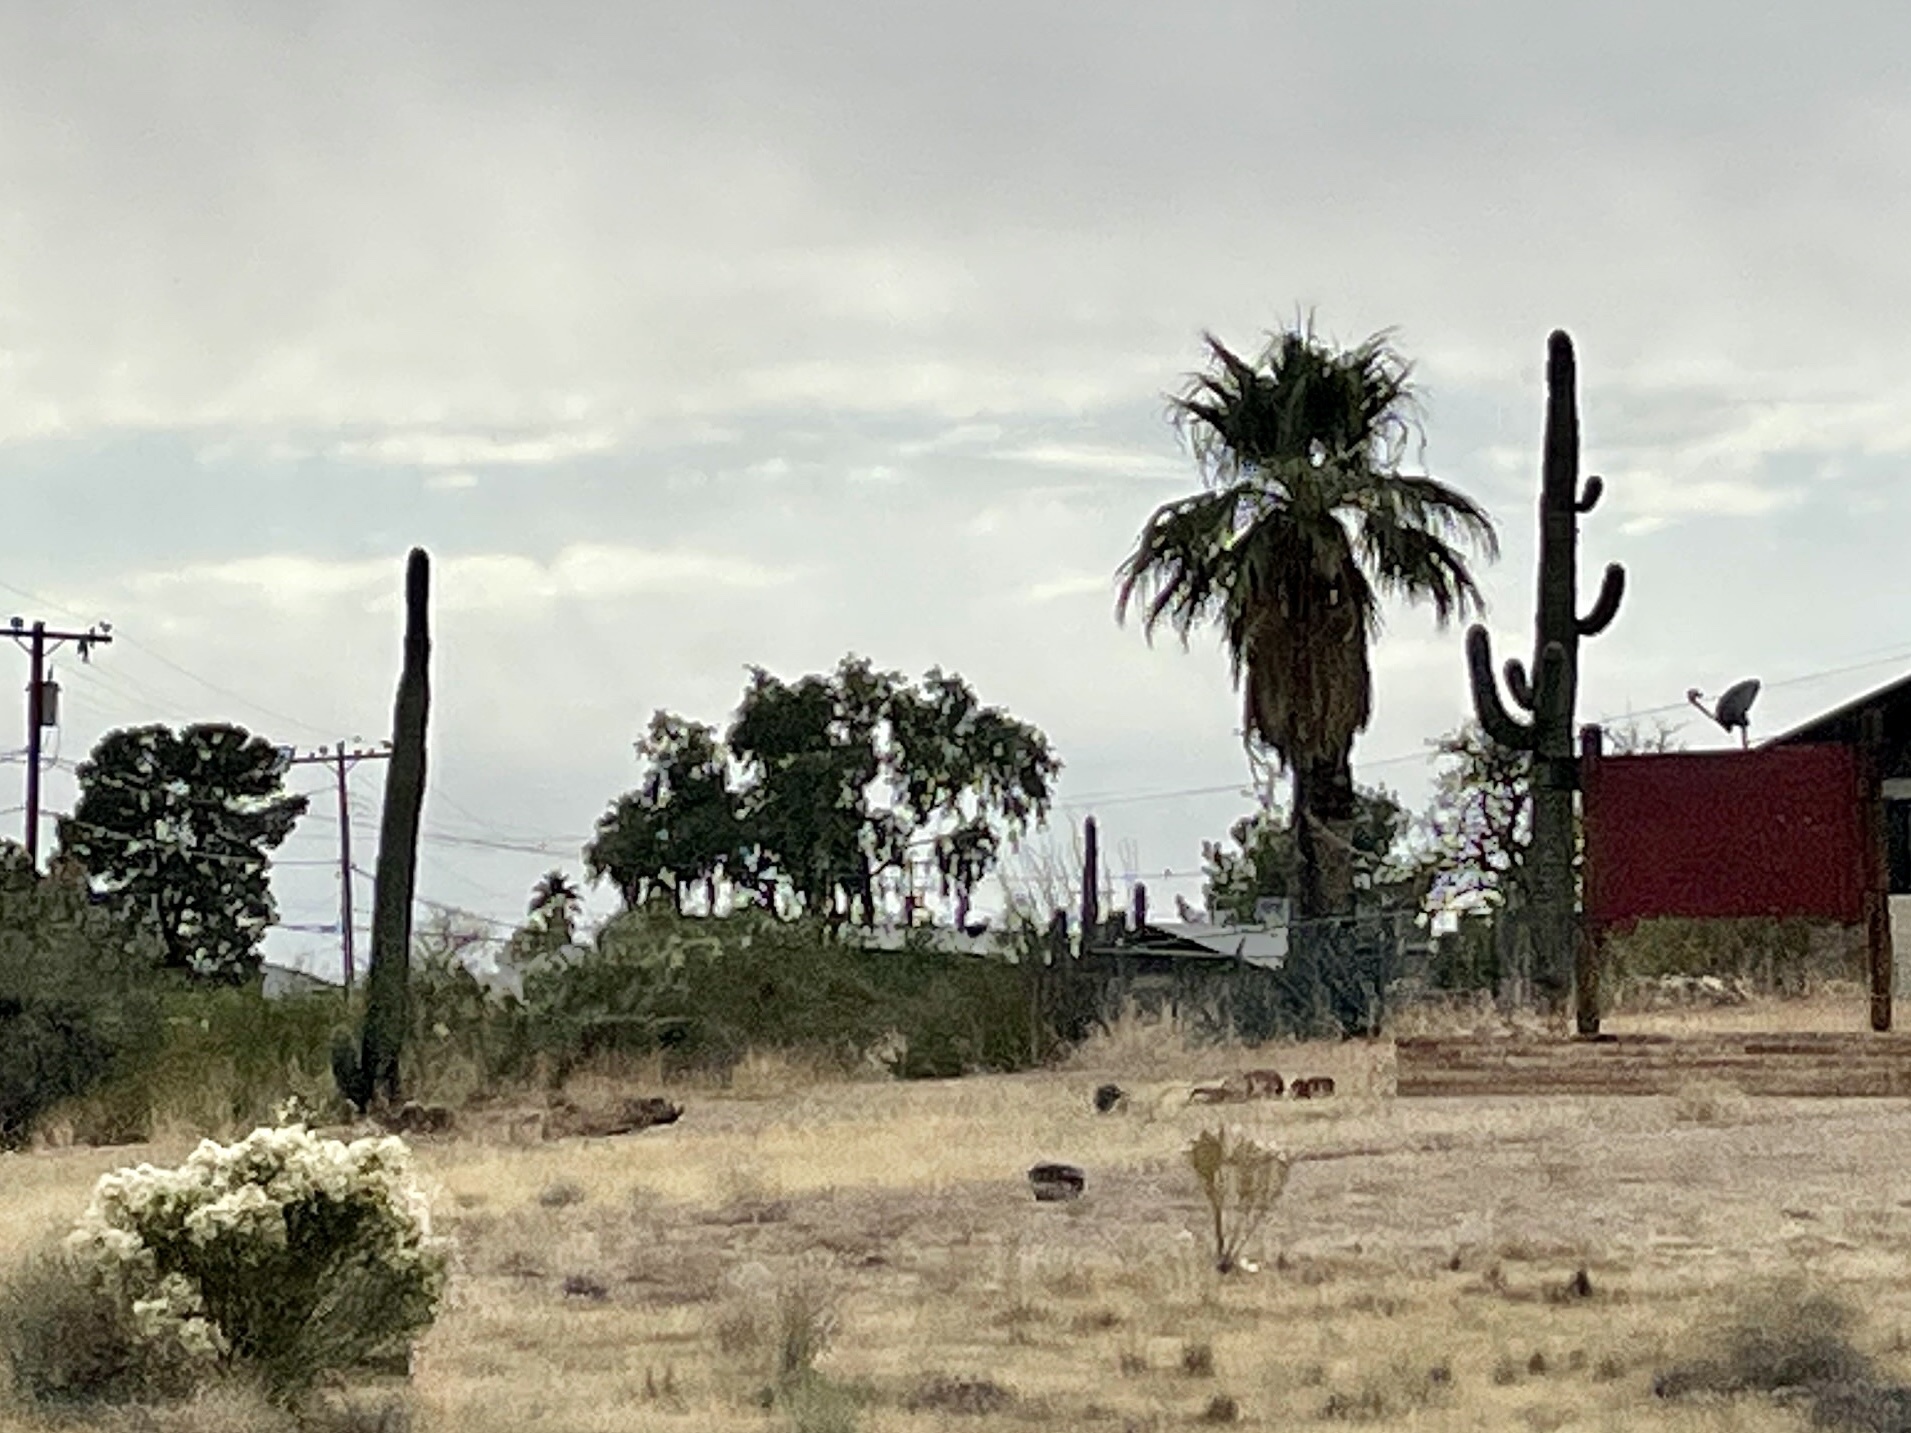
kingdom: Plantae
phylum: Tracheophyta
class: Magnoliopsida
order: Caryophyllales
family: Cactaceae
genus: Carnegiea
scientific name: Carnegiea gigantea
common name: Saguaro
